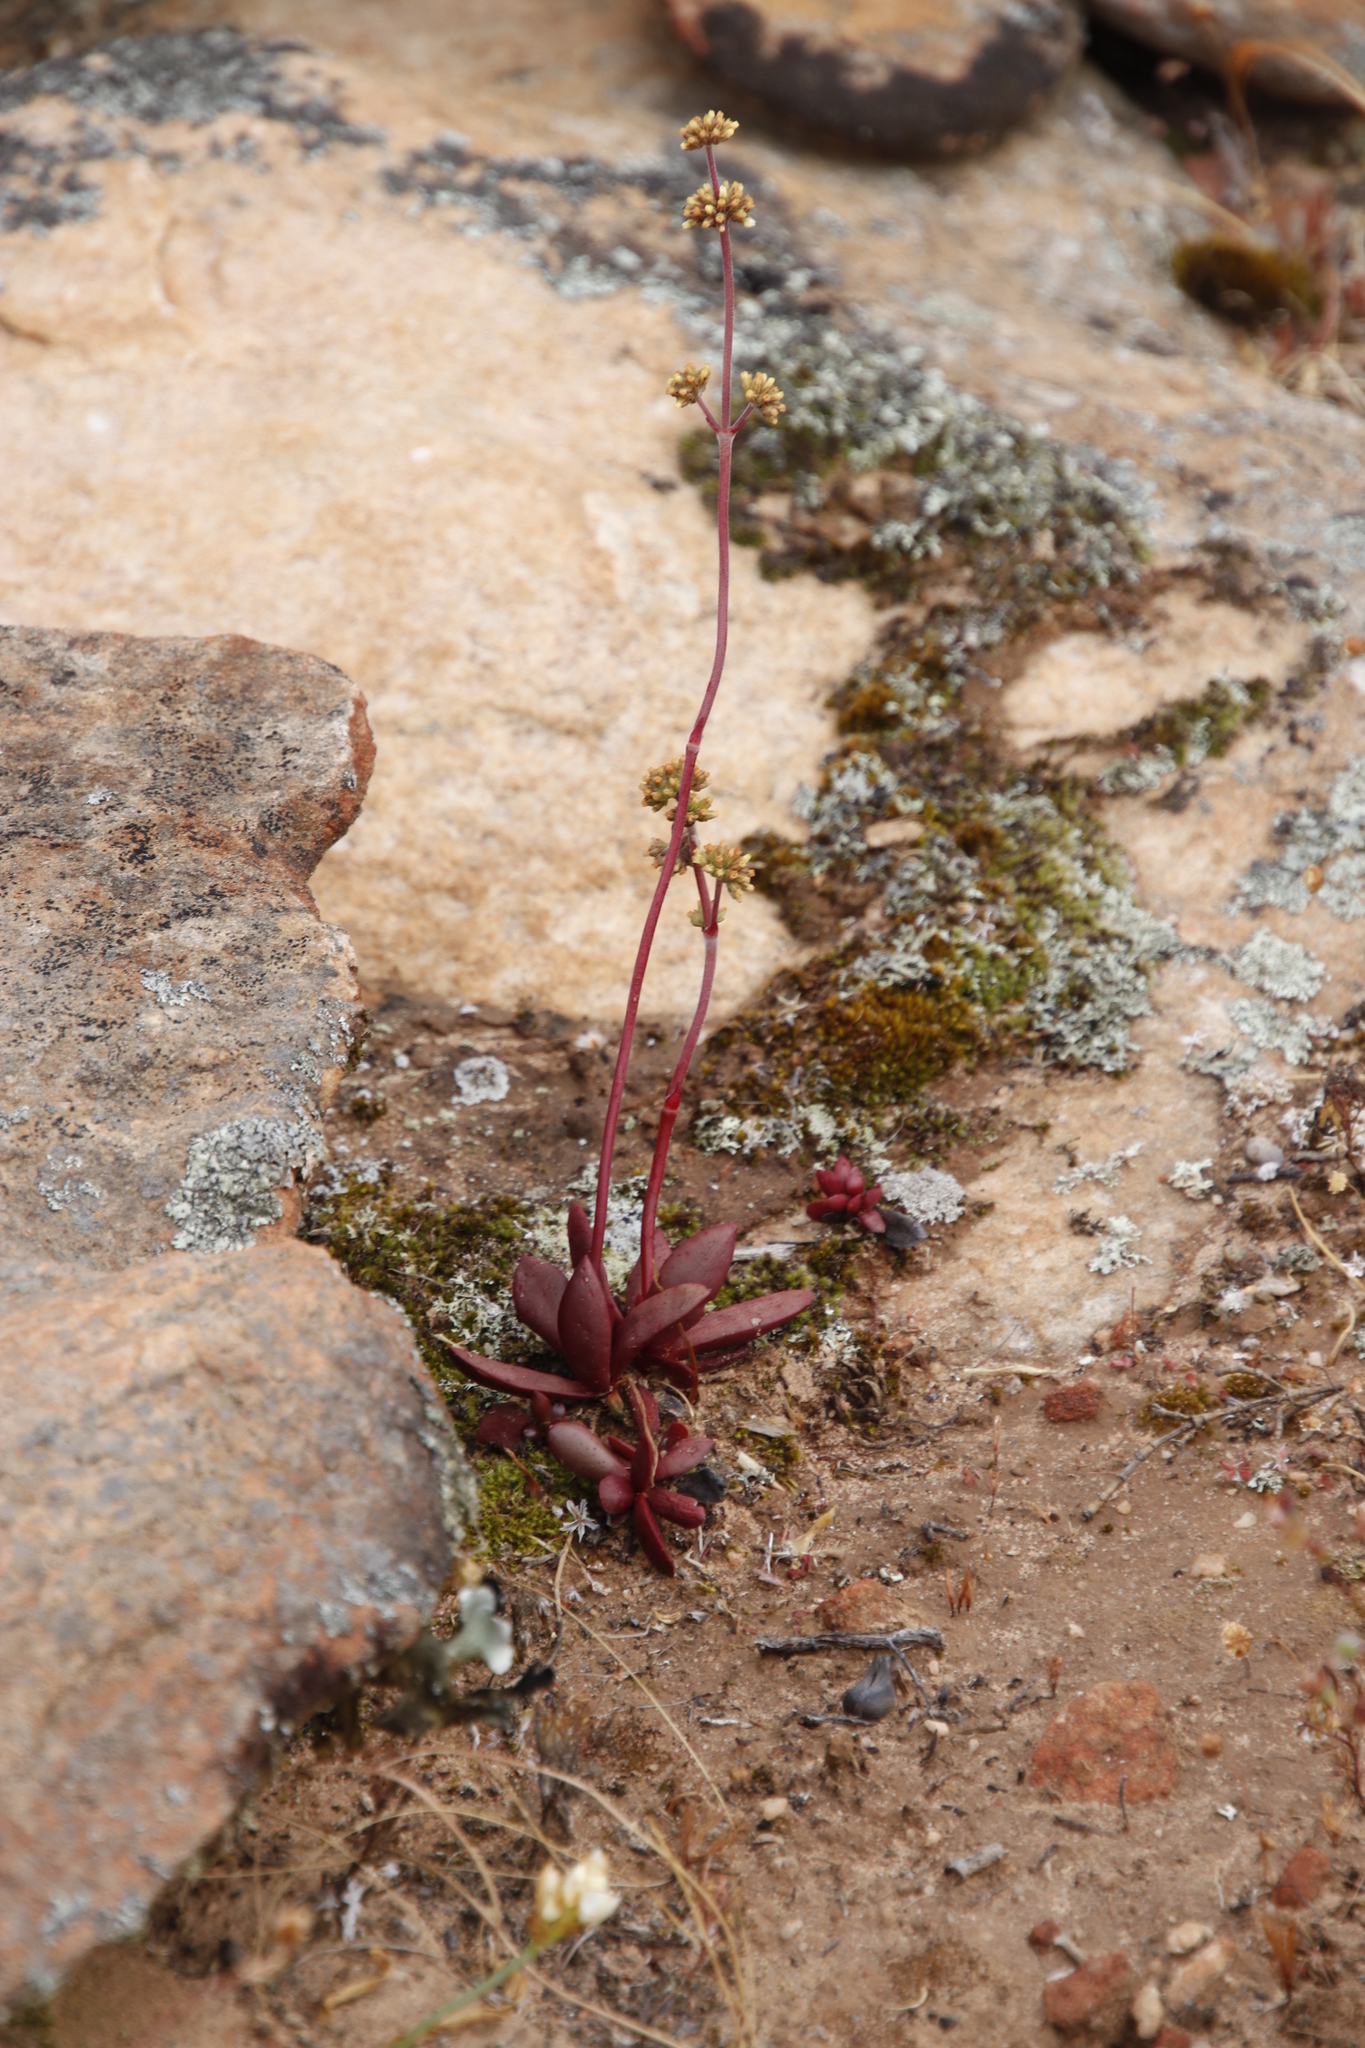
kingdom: Plantae
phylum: Tracheophyta
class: Magnoliopsida
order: Saxifragales
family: Crassulaceae
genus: Crassula
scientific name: Crassula clavata
